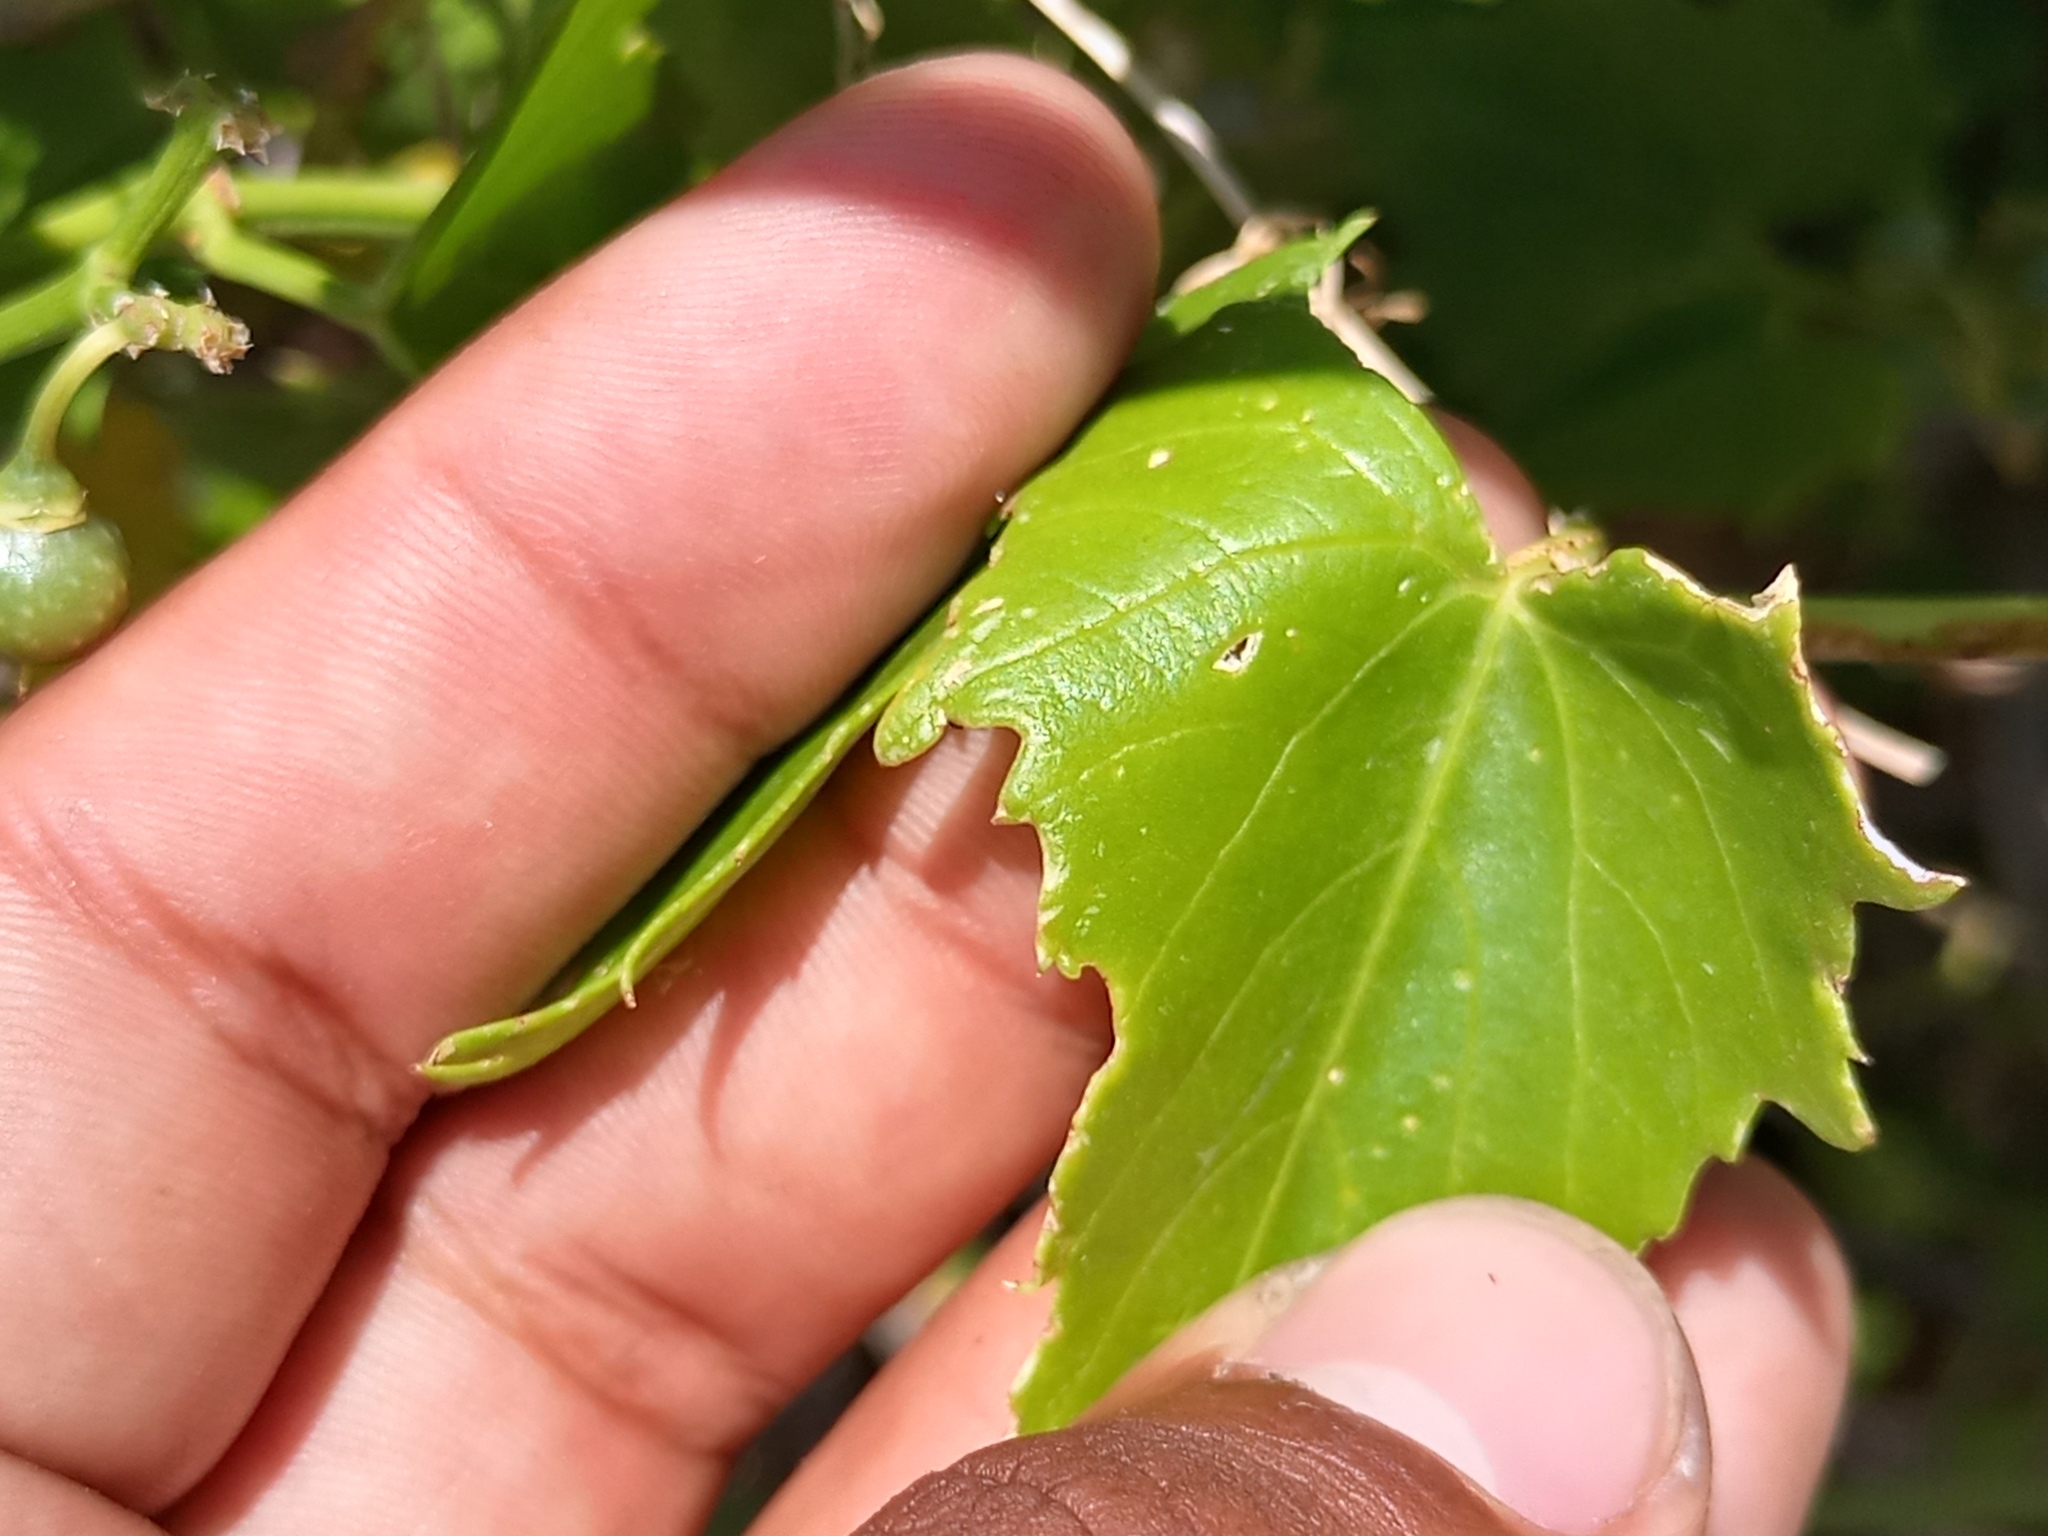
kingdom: Plantae
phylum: Tracheophyta
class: Magnoliopsida
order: Vitales
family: Vitaceae
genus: Cissus
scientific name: Cissus verticillata
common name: Princess vine
